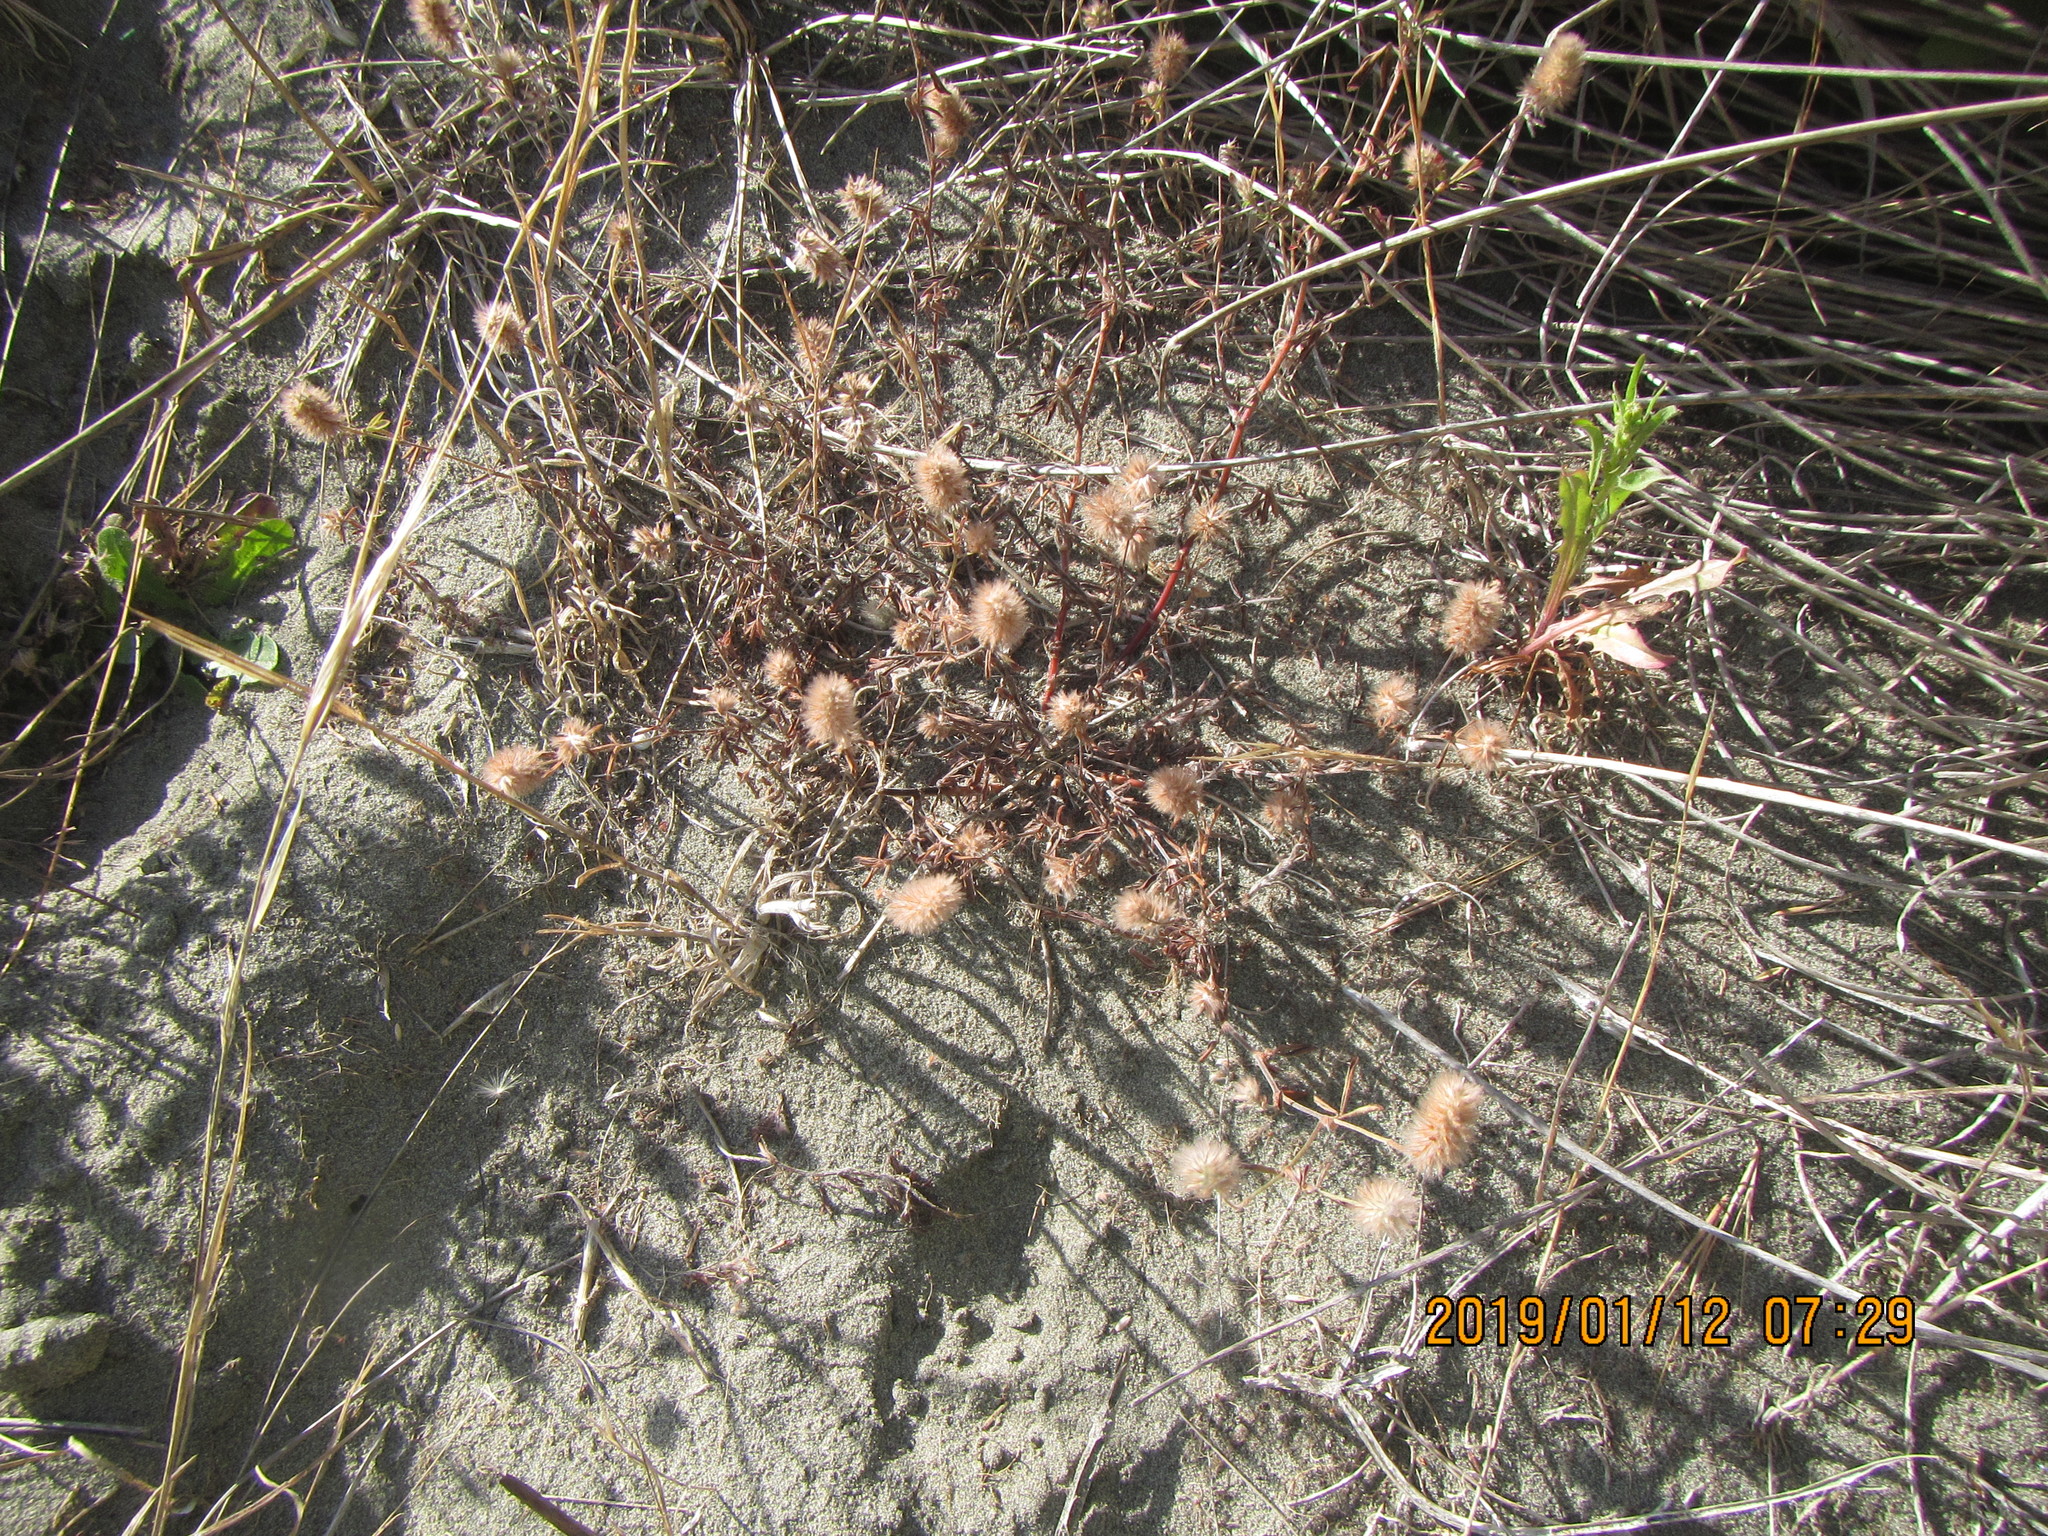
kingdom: Plantae
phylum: Tracheophyta
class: Magnoliopsida
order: Fabales
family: Fabaceae
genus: Trifolium
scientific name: Trifolium arvense
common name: Hare's-foot clover
